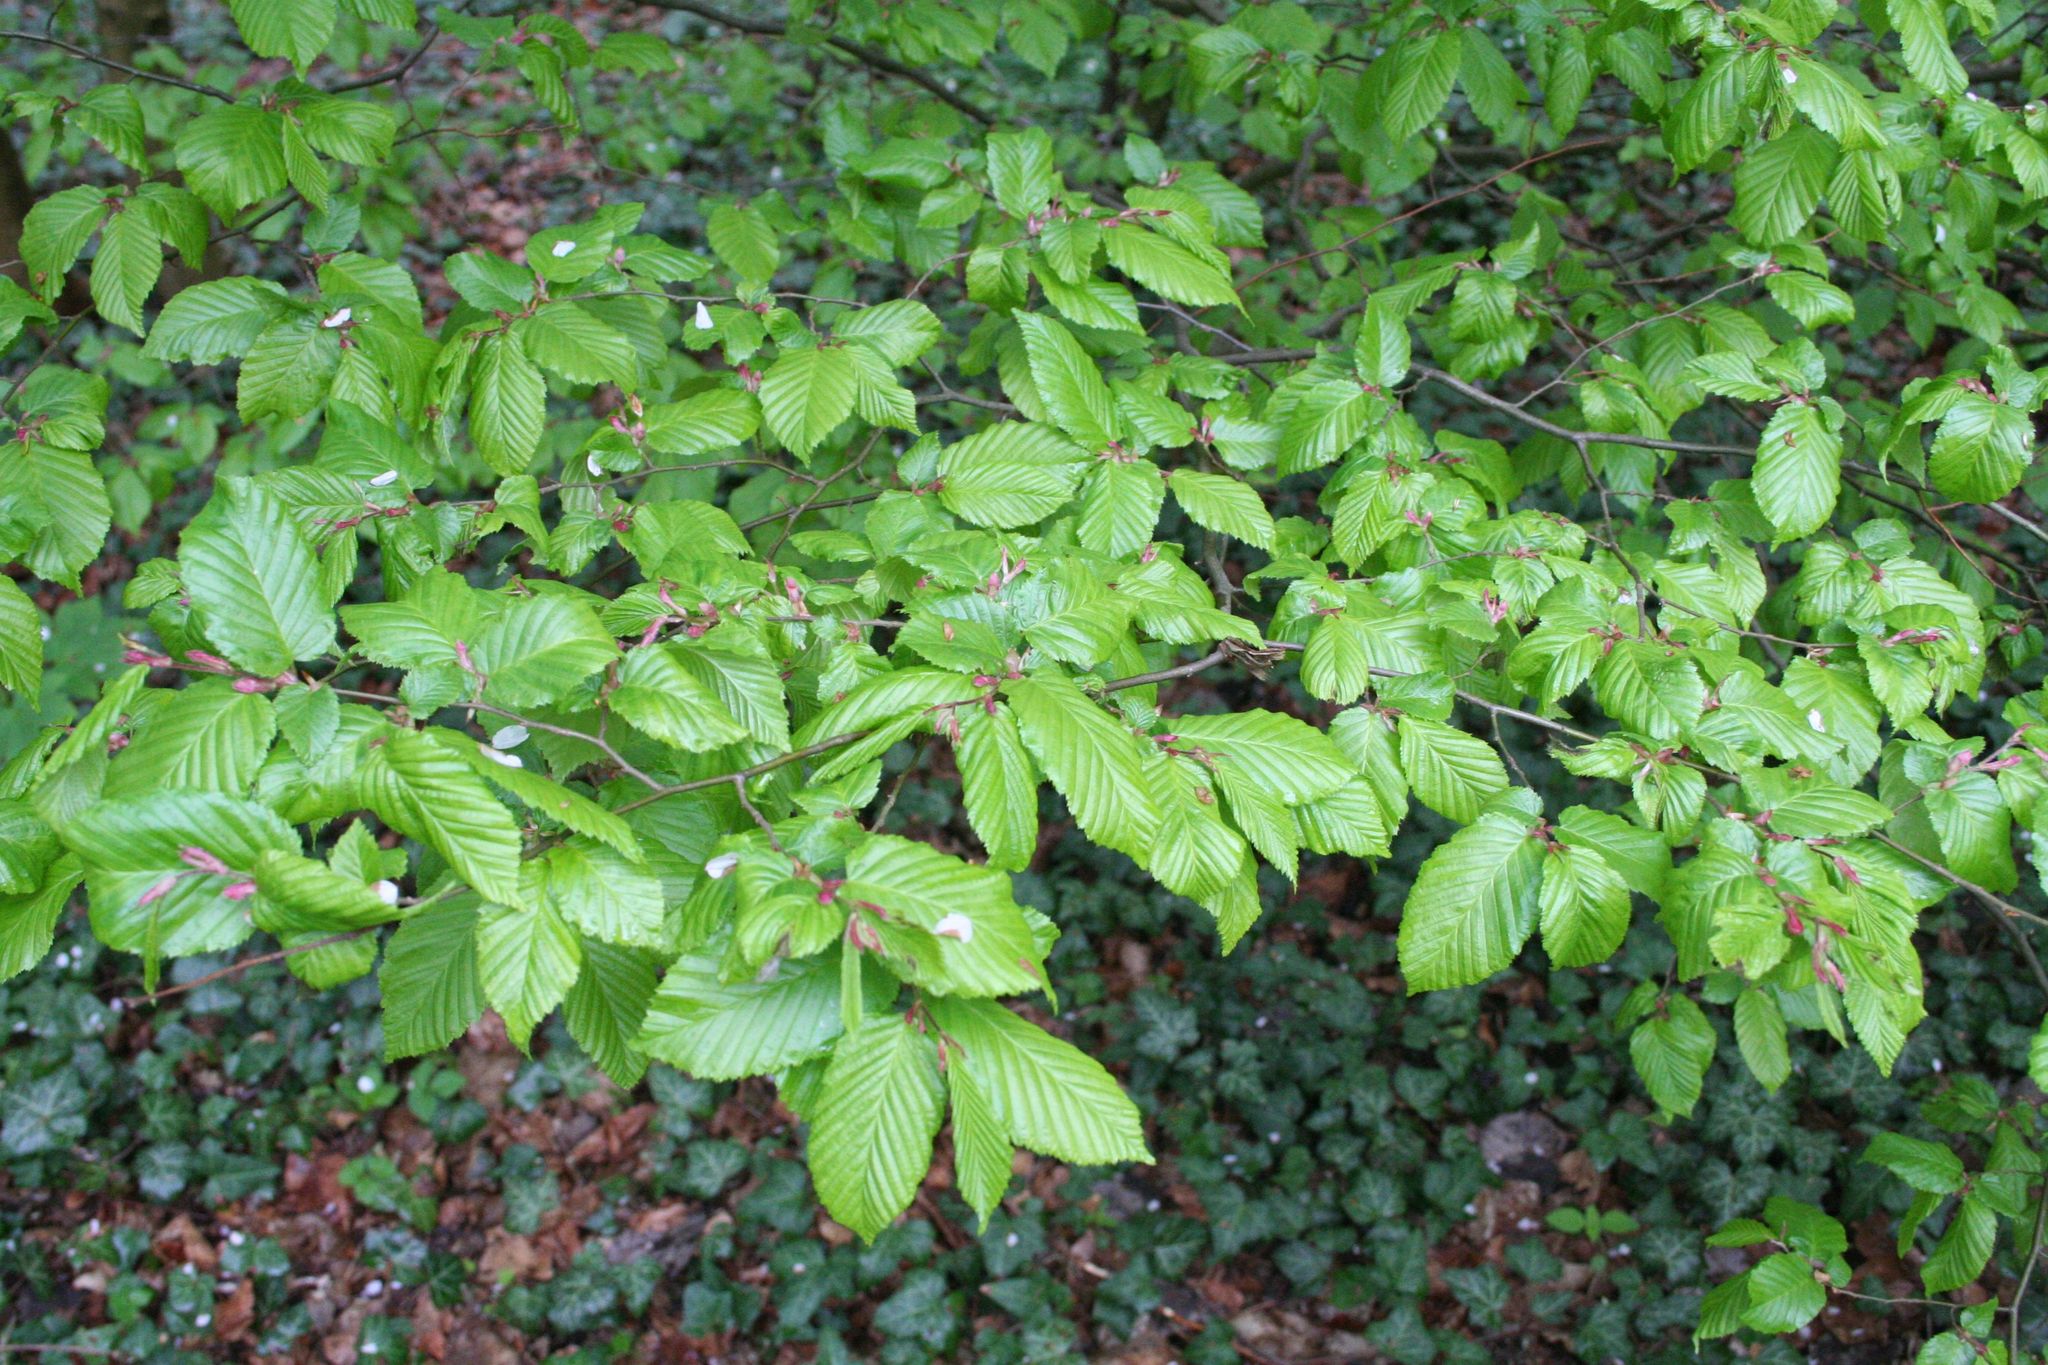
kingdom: Plantae
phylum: Tracheophyta
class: Magnoliopsida
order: Fagales
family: Betulaceae
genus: Carpinus
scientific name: Carpinus betulus
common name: Hornbeam
